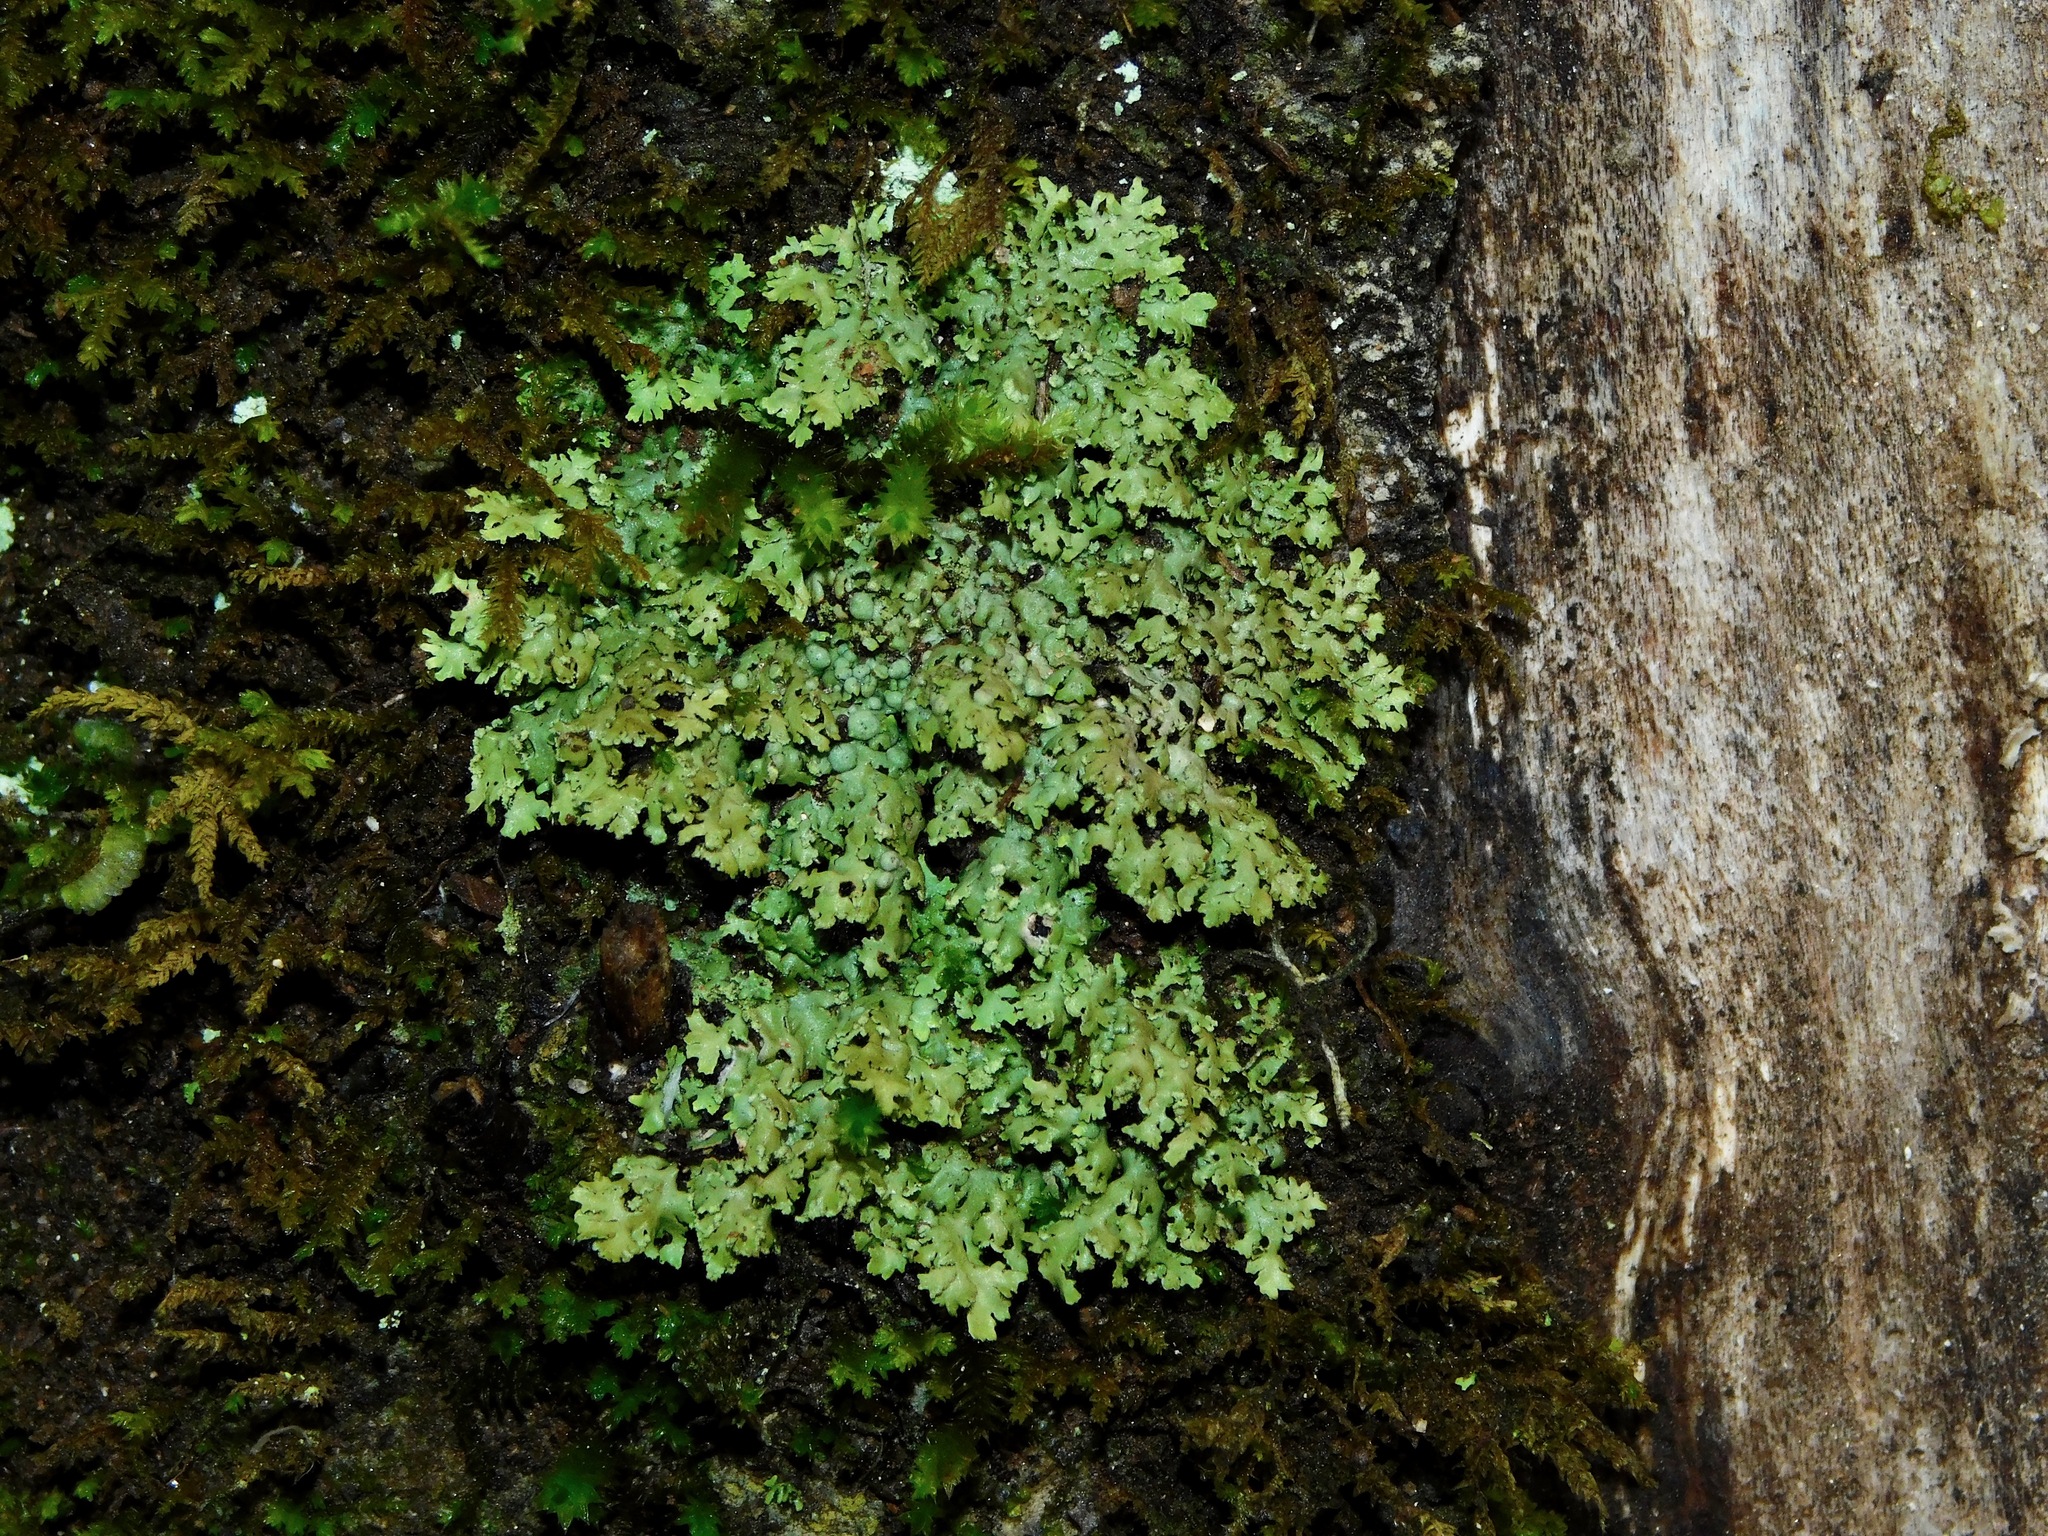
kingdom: Fungi
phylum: Ascomycota
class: Lecanoromycetes
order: Caliciales
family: Physciaceae
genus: Physciella
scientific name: Physciella chloantha
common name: Cryptic rosette lichen
